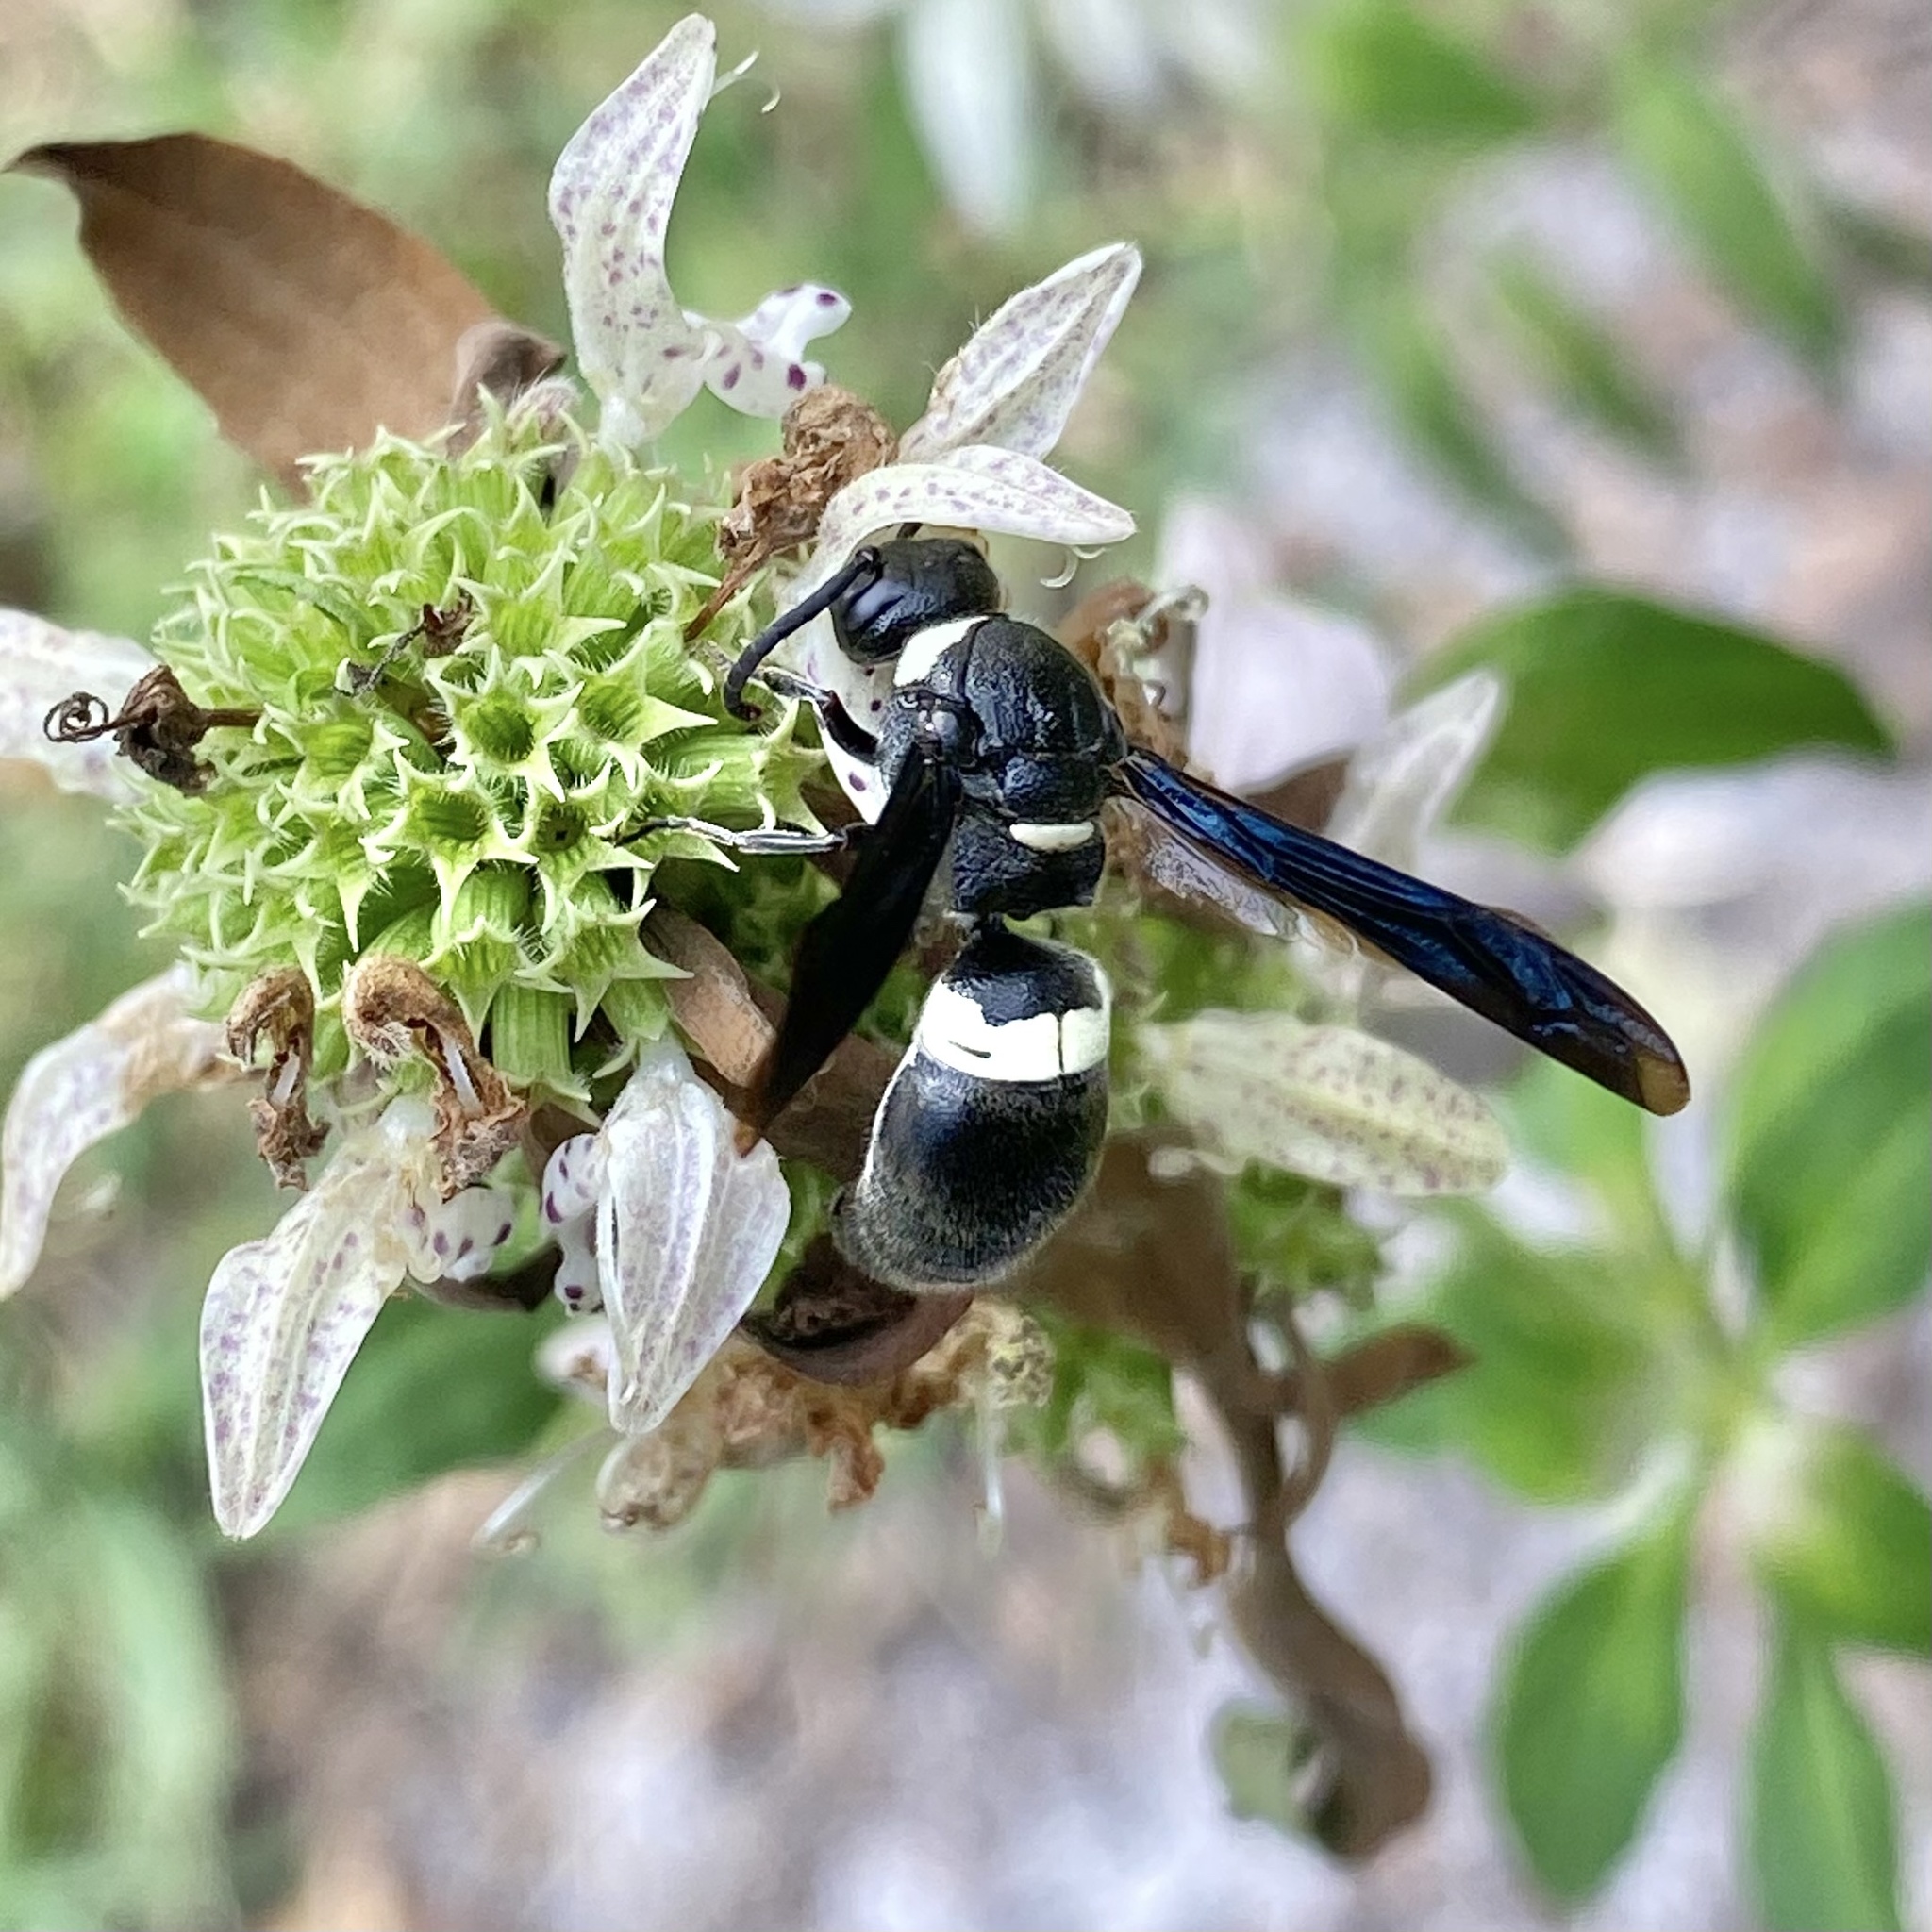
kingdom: Animalia
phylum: Arthropoda
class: Insecta
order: Hymenoptera
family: Eumenidae
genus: Monobia
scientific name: Monobia quadridens
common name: Four-toothed mason wasp
